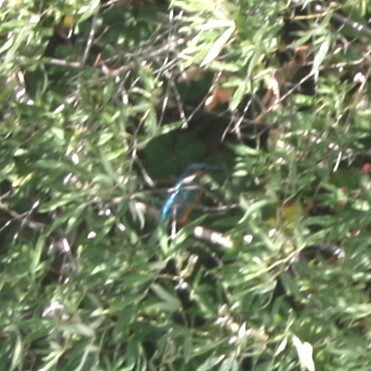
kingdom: Animalia
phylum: Chordata
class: Aves
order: Coraciiformes
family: Alcedinidae
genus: Alcedo
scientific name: Alcedo atthis
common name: Common kingfisher
